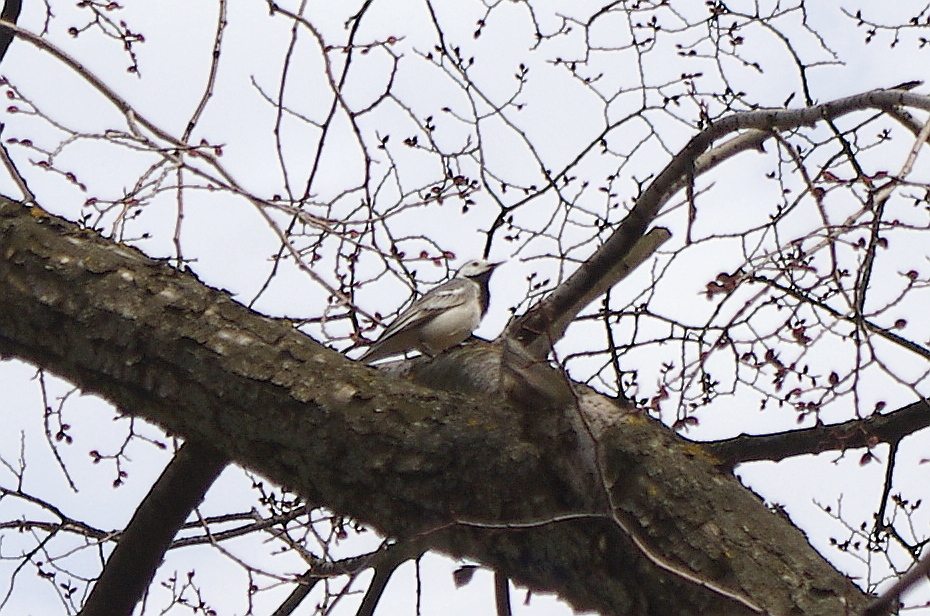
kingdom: Animalia
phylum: Chordata
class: Aves
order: Passeriformes
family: Motacillidae
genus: Motacilla
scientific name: Motacilla alba
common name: White wagtail
